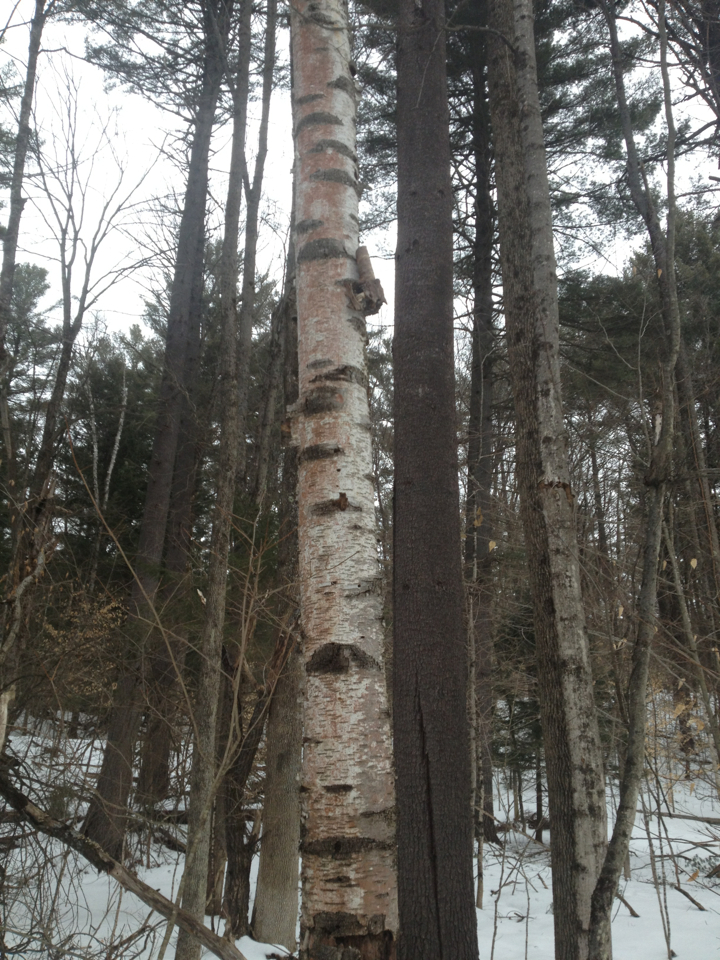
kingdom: Plantae
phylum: Tracheophyta
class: Magnoliopsida
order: Fagales
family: Betulaceae
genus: Betula
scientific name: Betula papyrifera
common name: Paper birch
